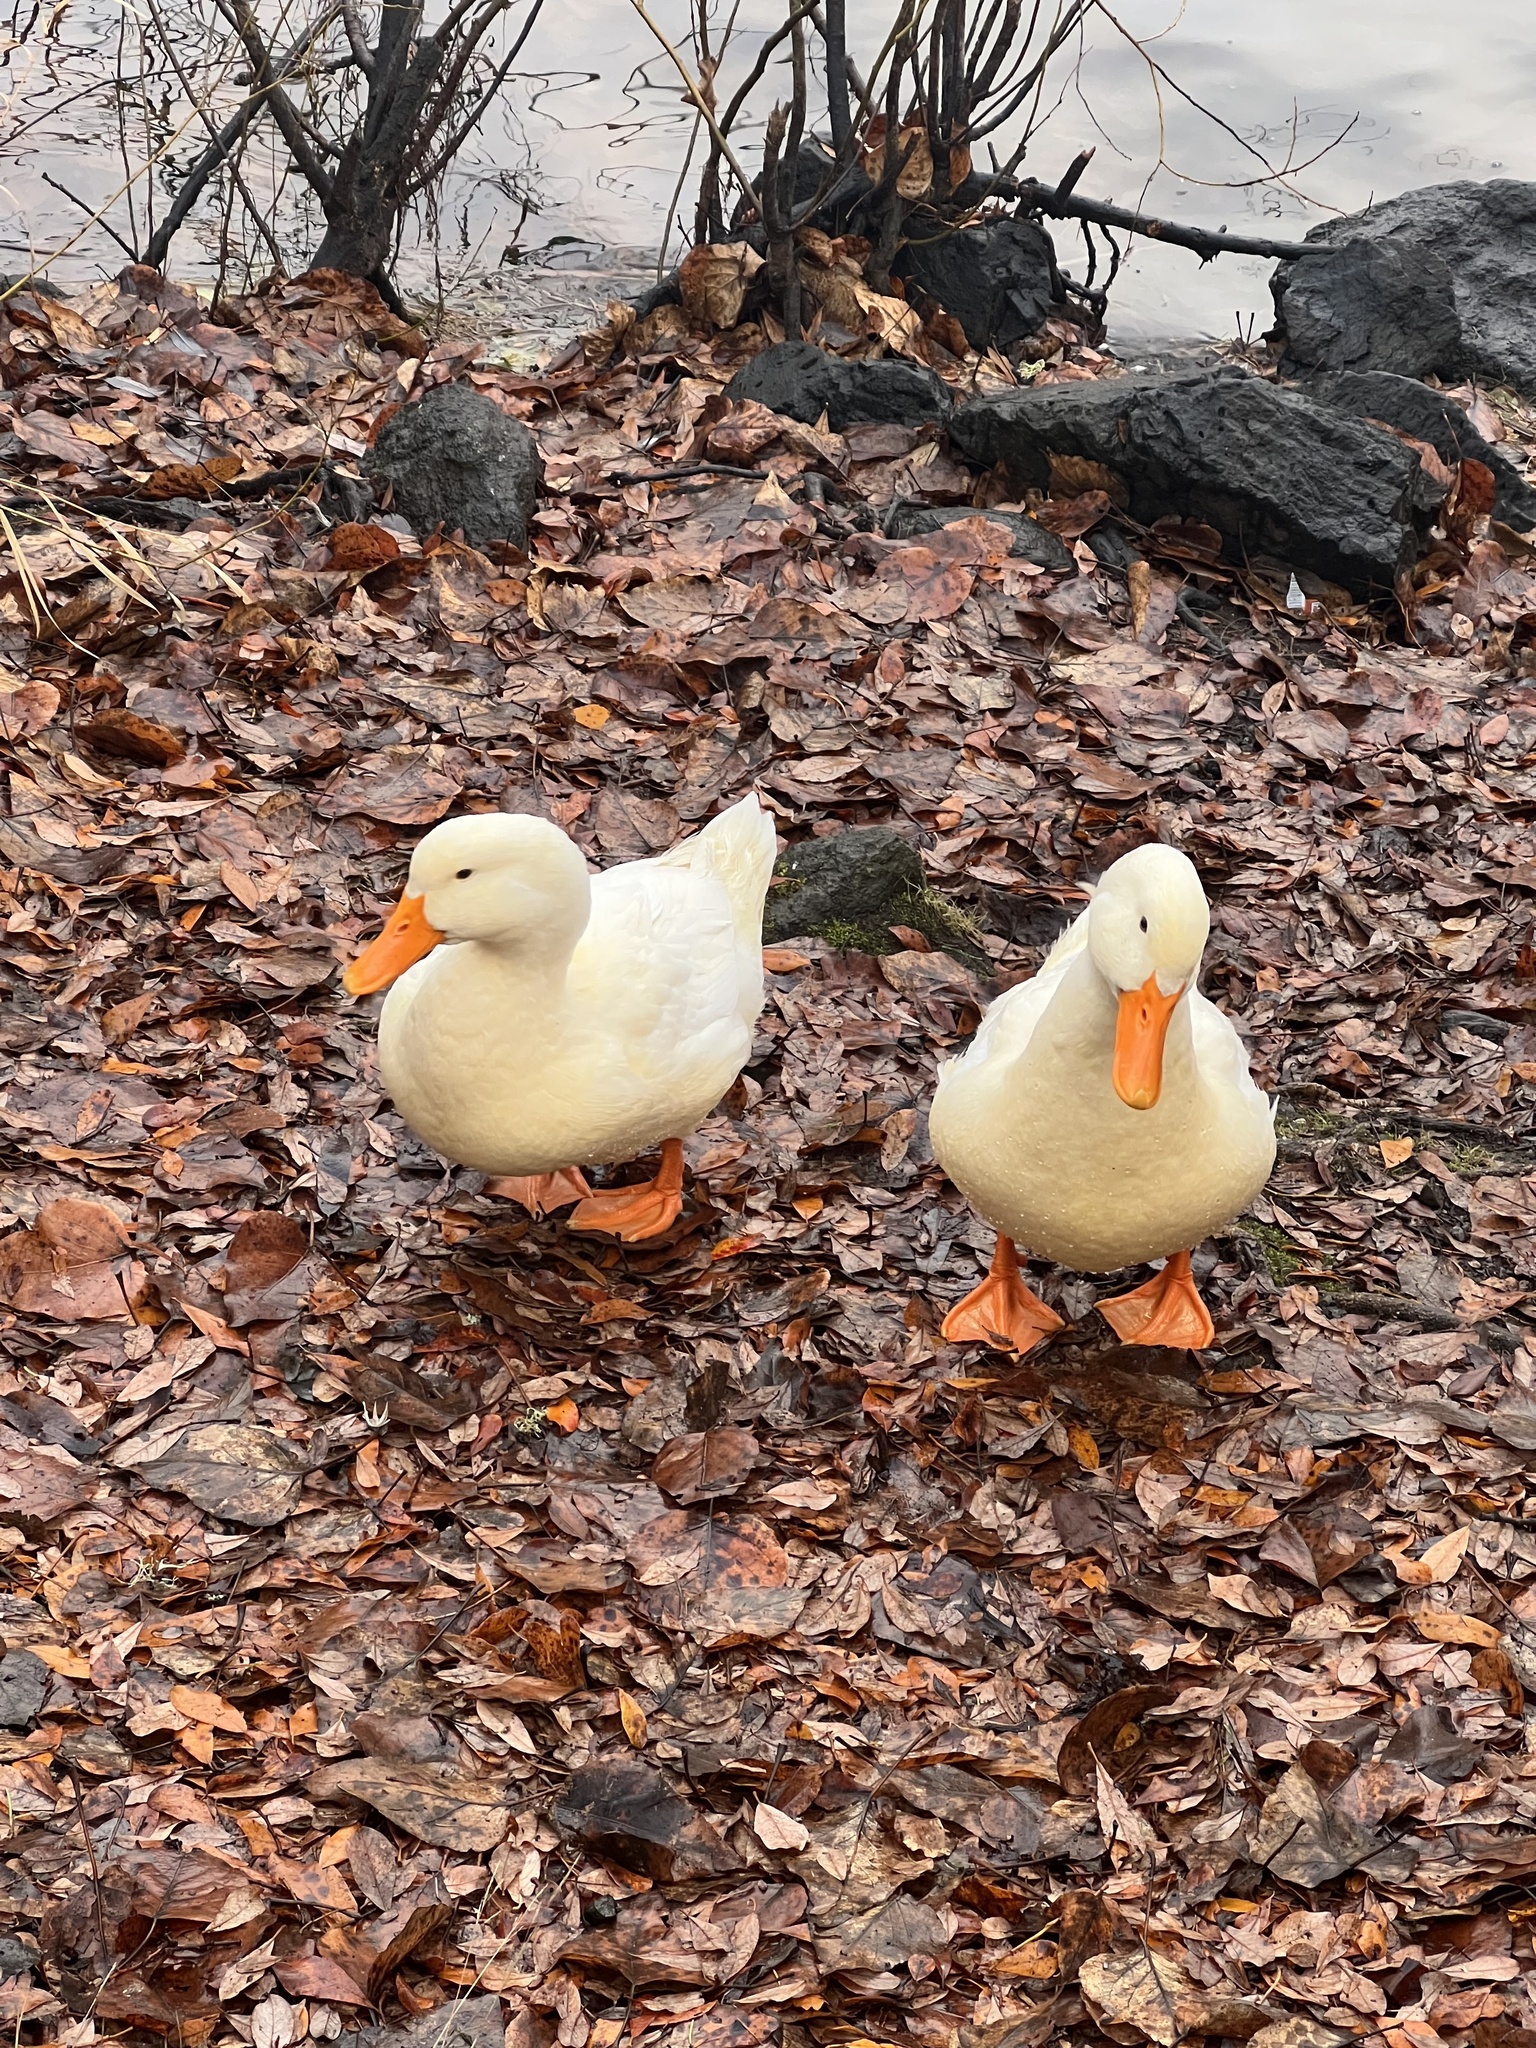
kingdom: Animalia
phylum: Chordata
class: Aves
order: Anseriformes
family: Anatidae
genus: Anas
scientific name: Anas platyrhynchos
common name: Mallard
